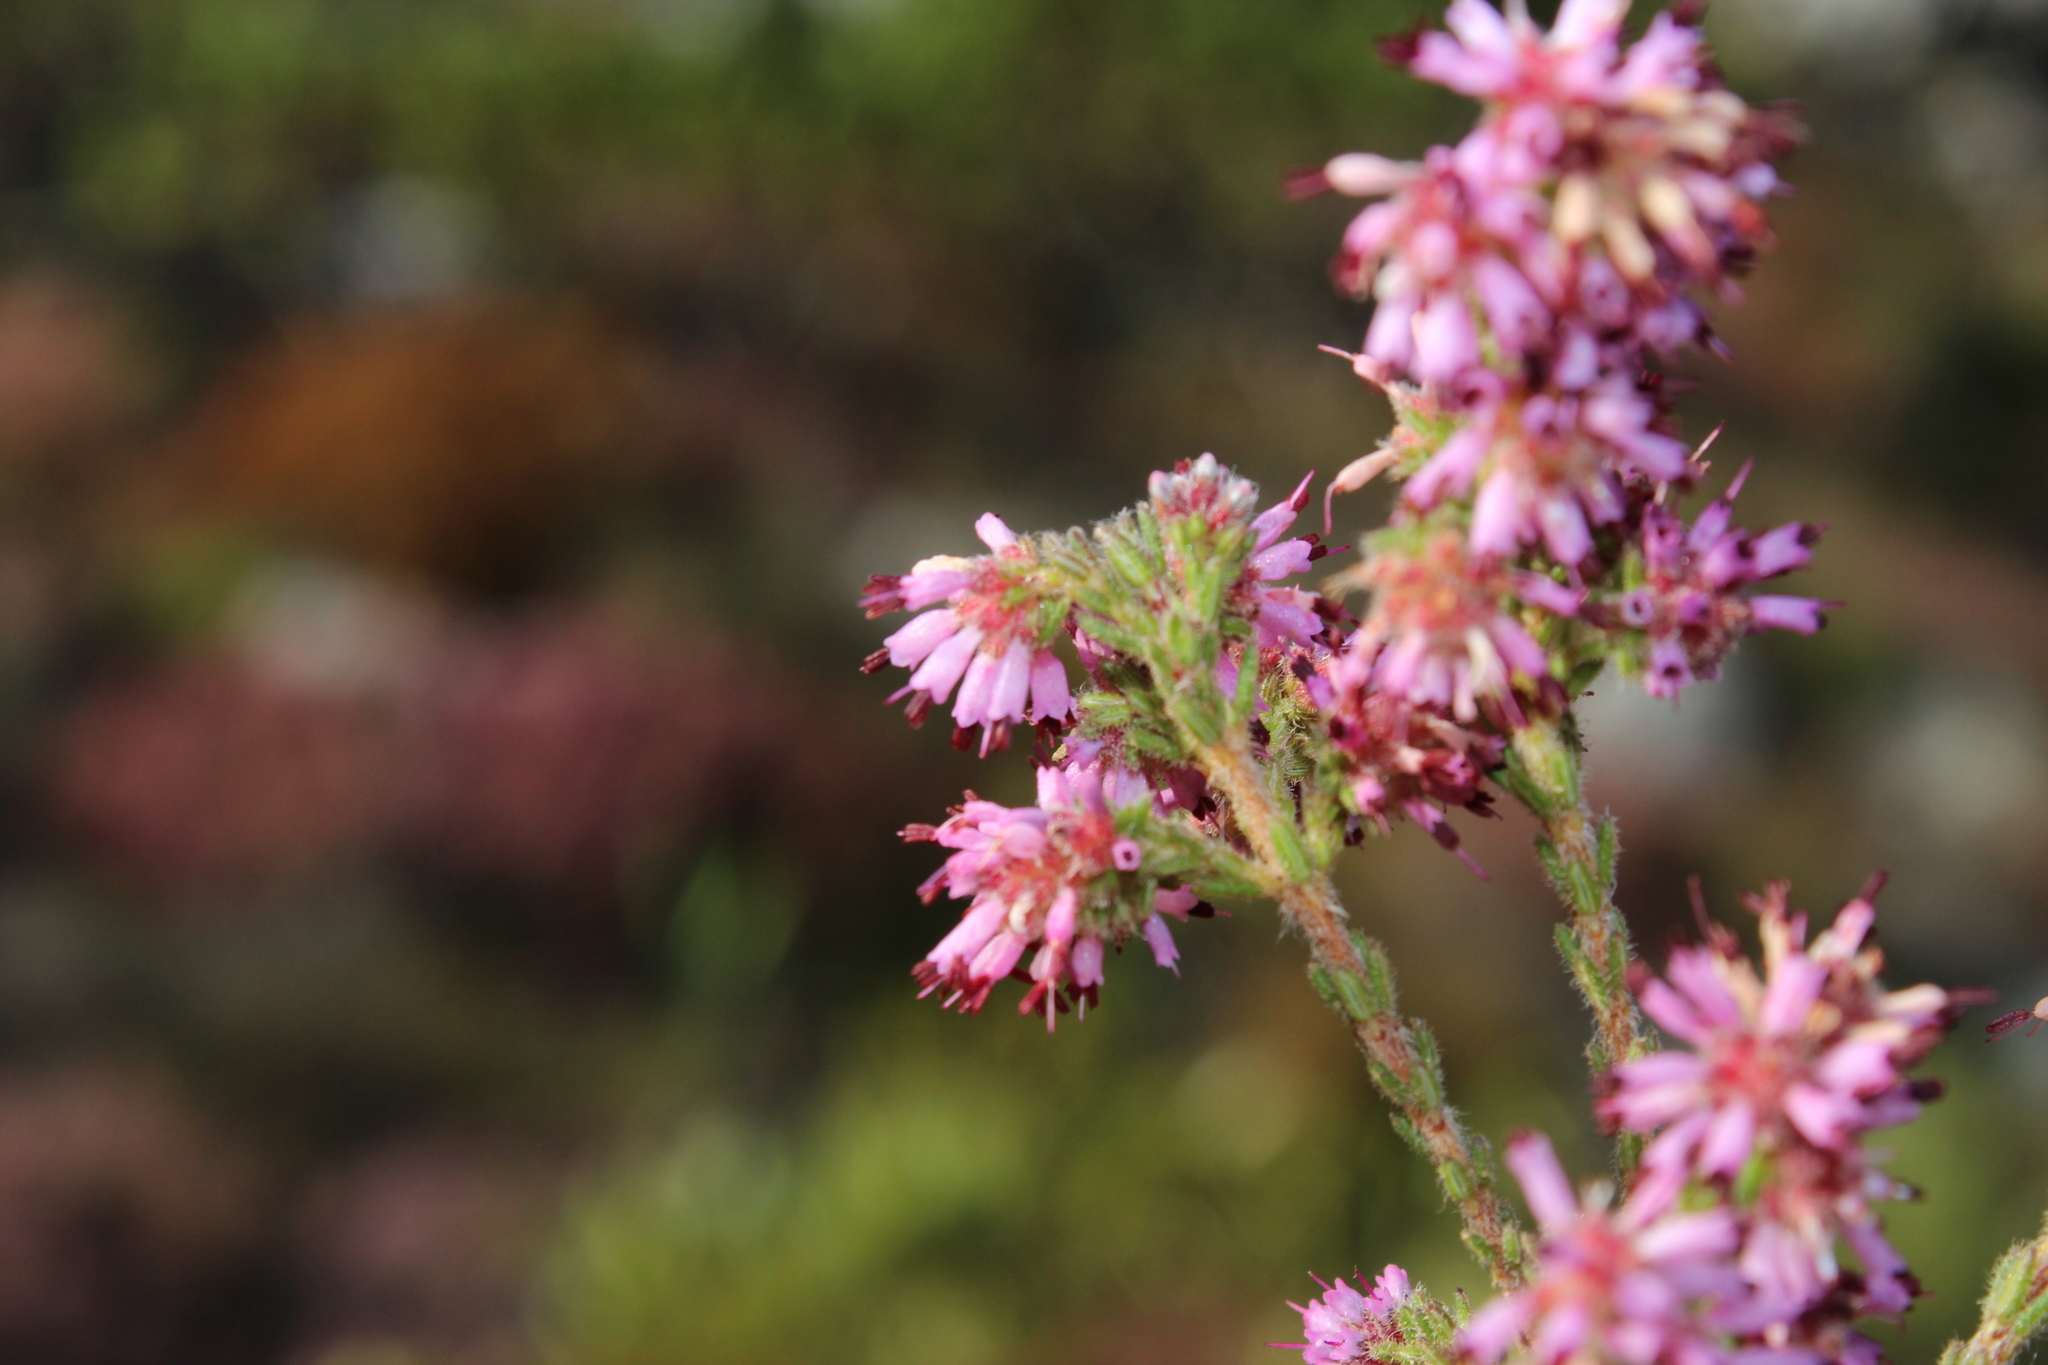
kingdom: Plantae
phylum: Tracheophyta
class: Magnoliopsida
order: Ericales
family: Ericaceae
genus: Erica
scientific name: Erica similis
